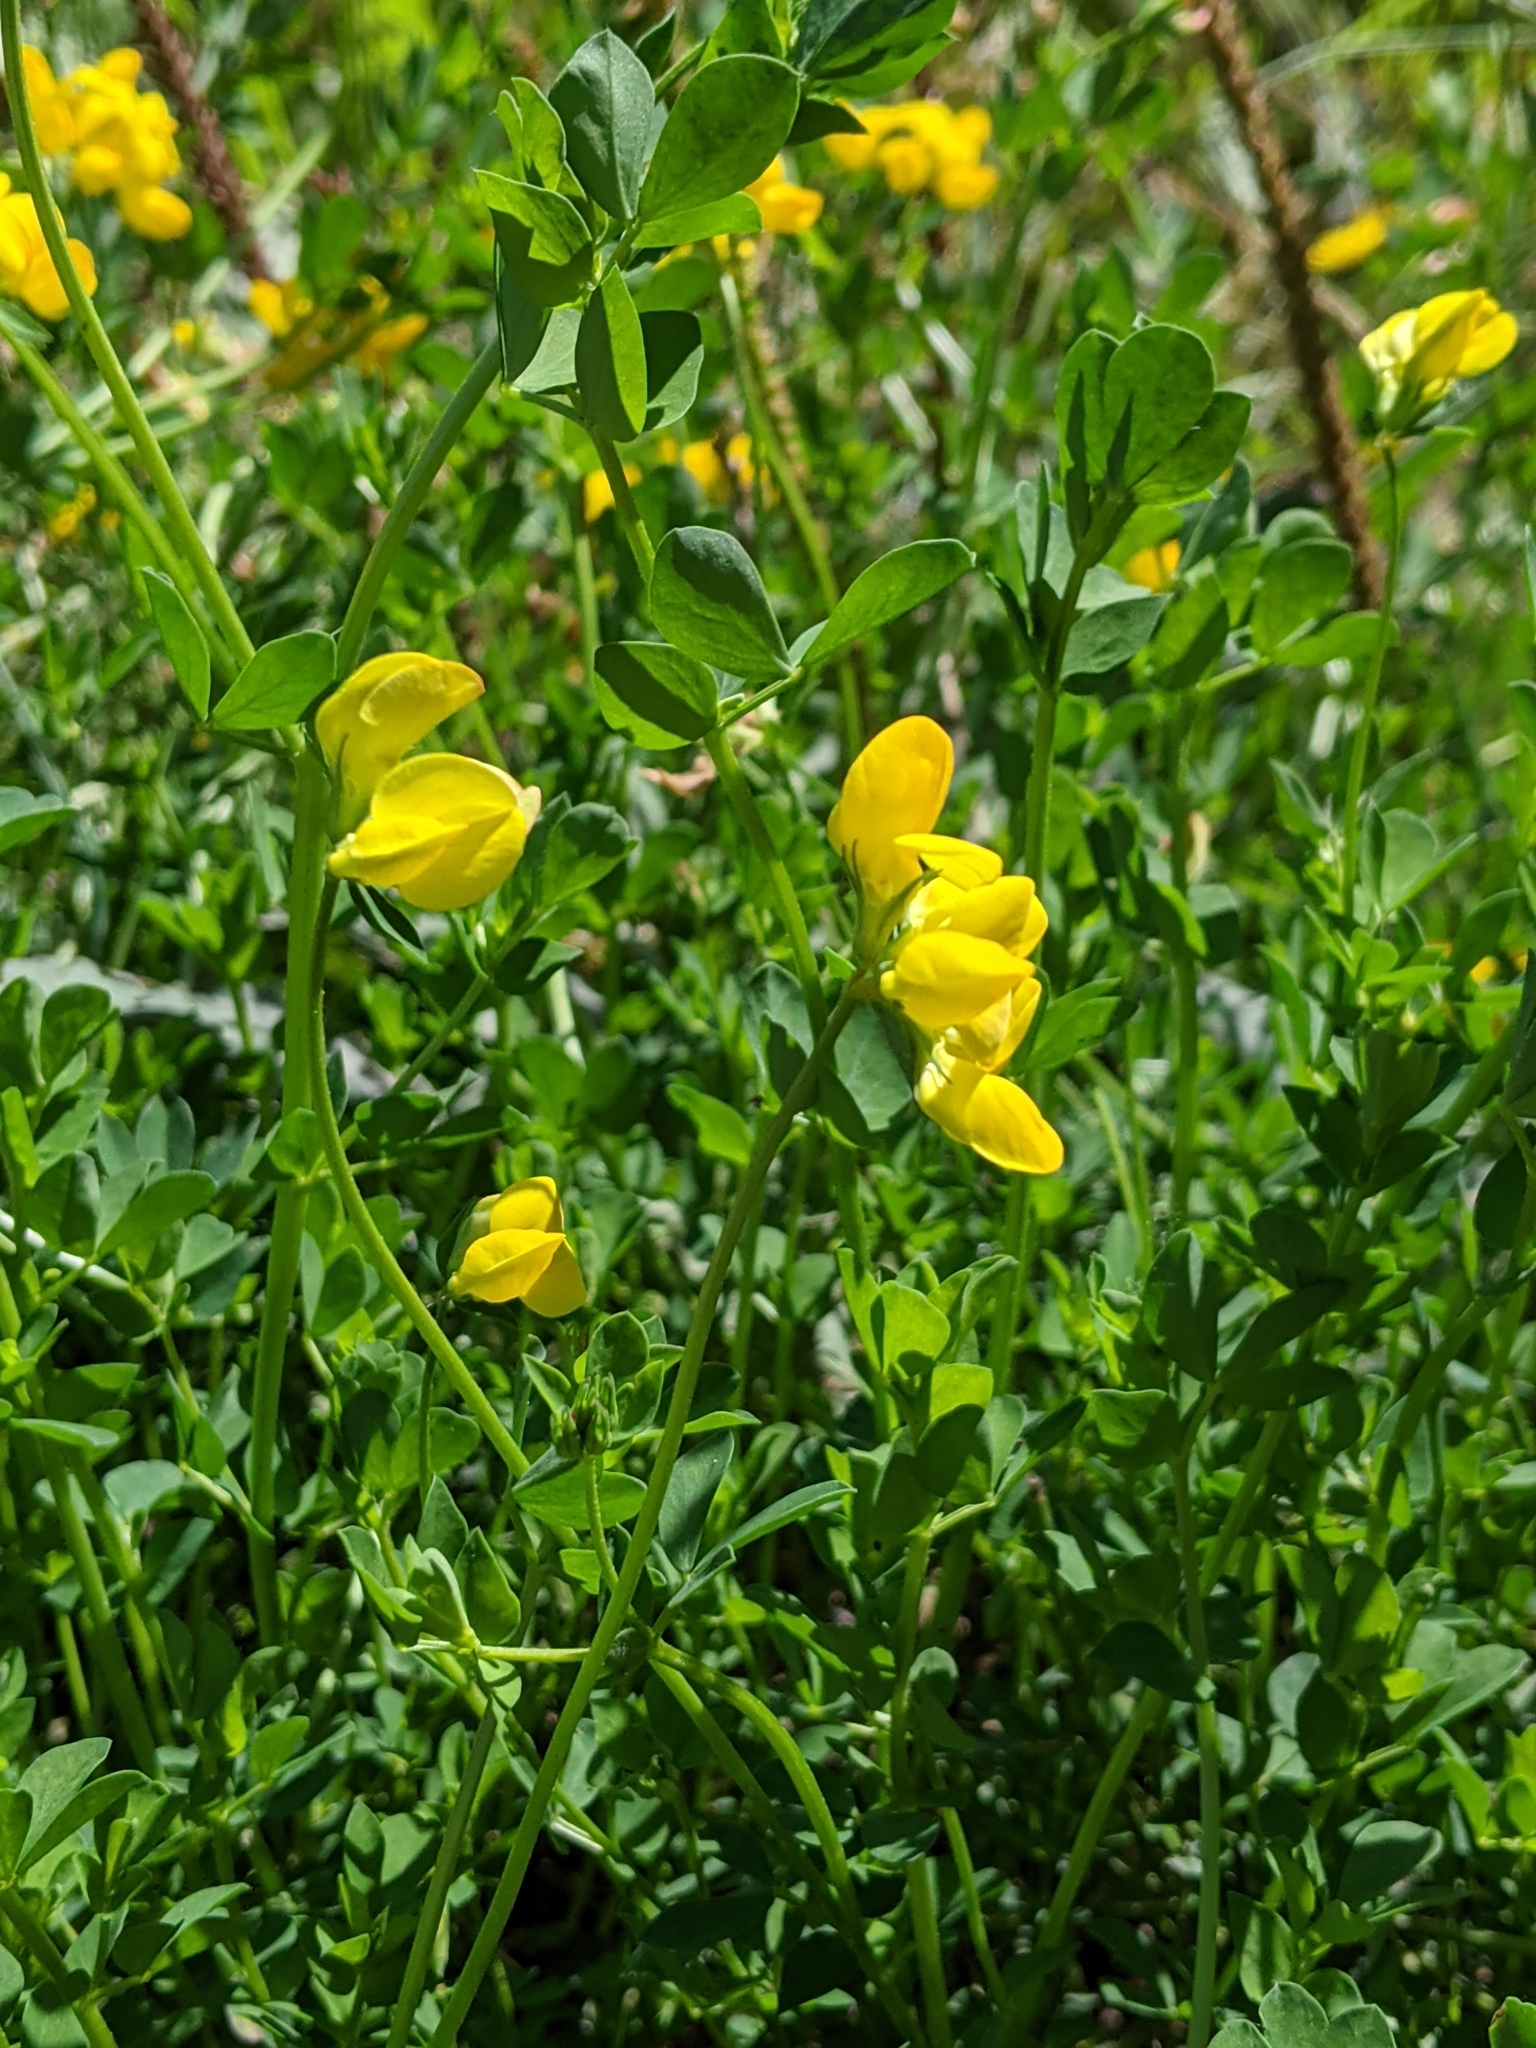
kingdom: Plantae
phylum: Tracheophyta
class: Magnoliopsida
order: Fabales
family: Fabaceae
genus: Lotus
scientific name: Lotus corniculatus
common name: Common bird's-foot-trefoil
